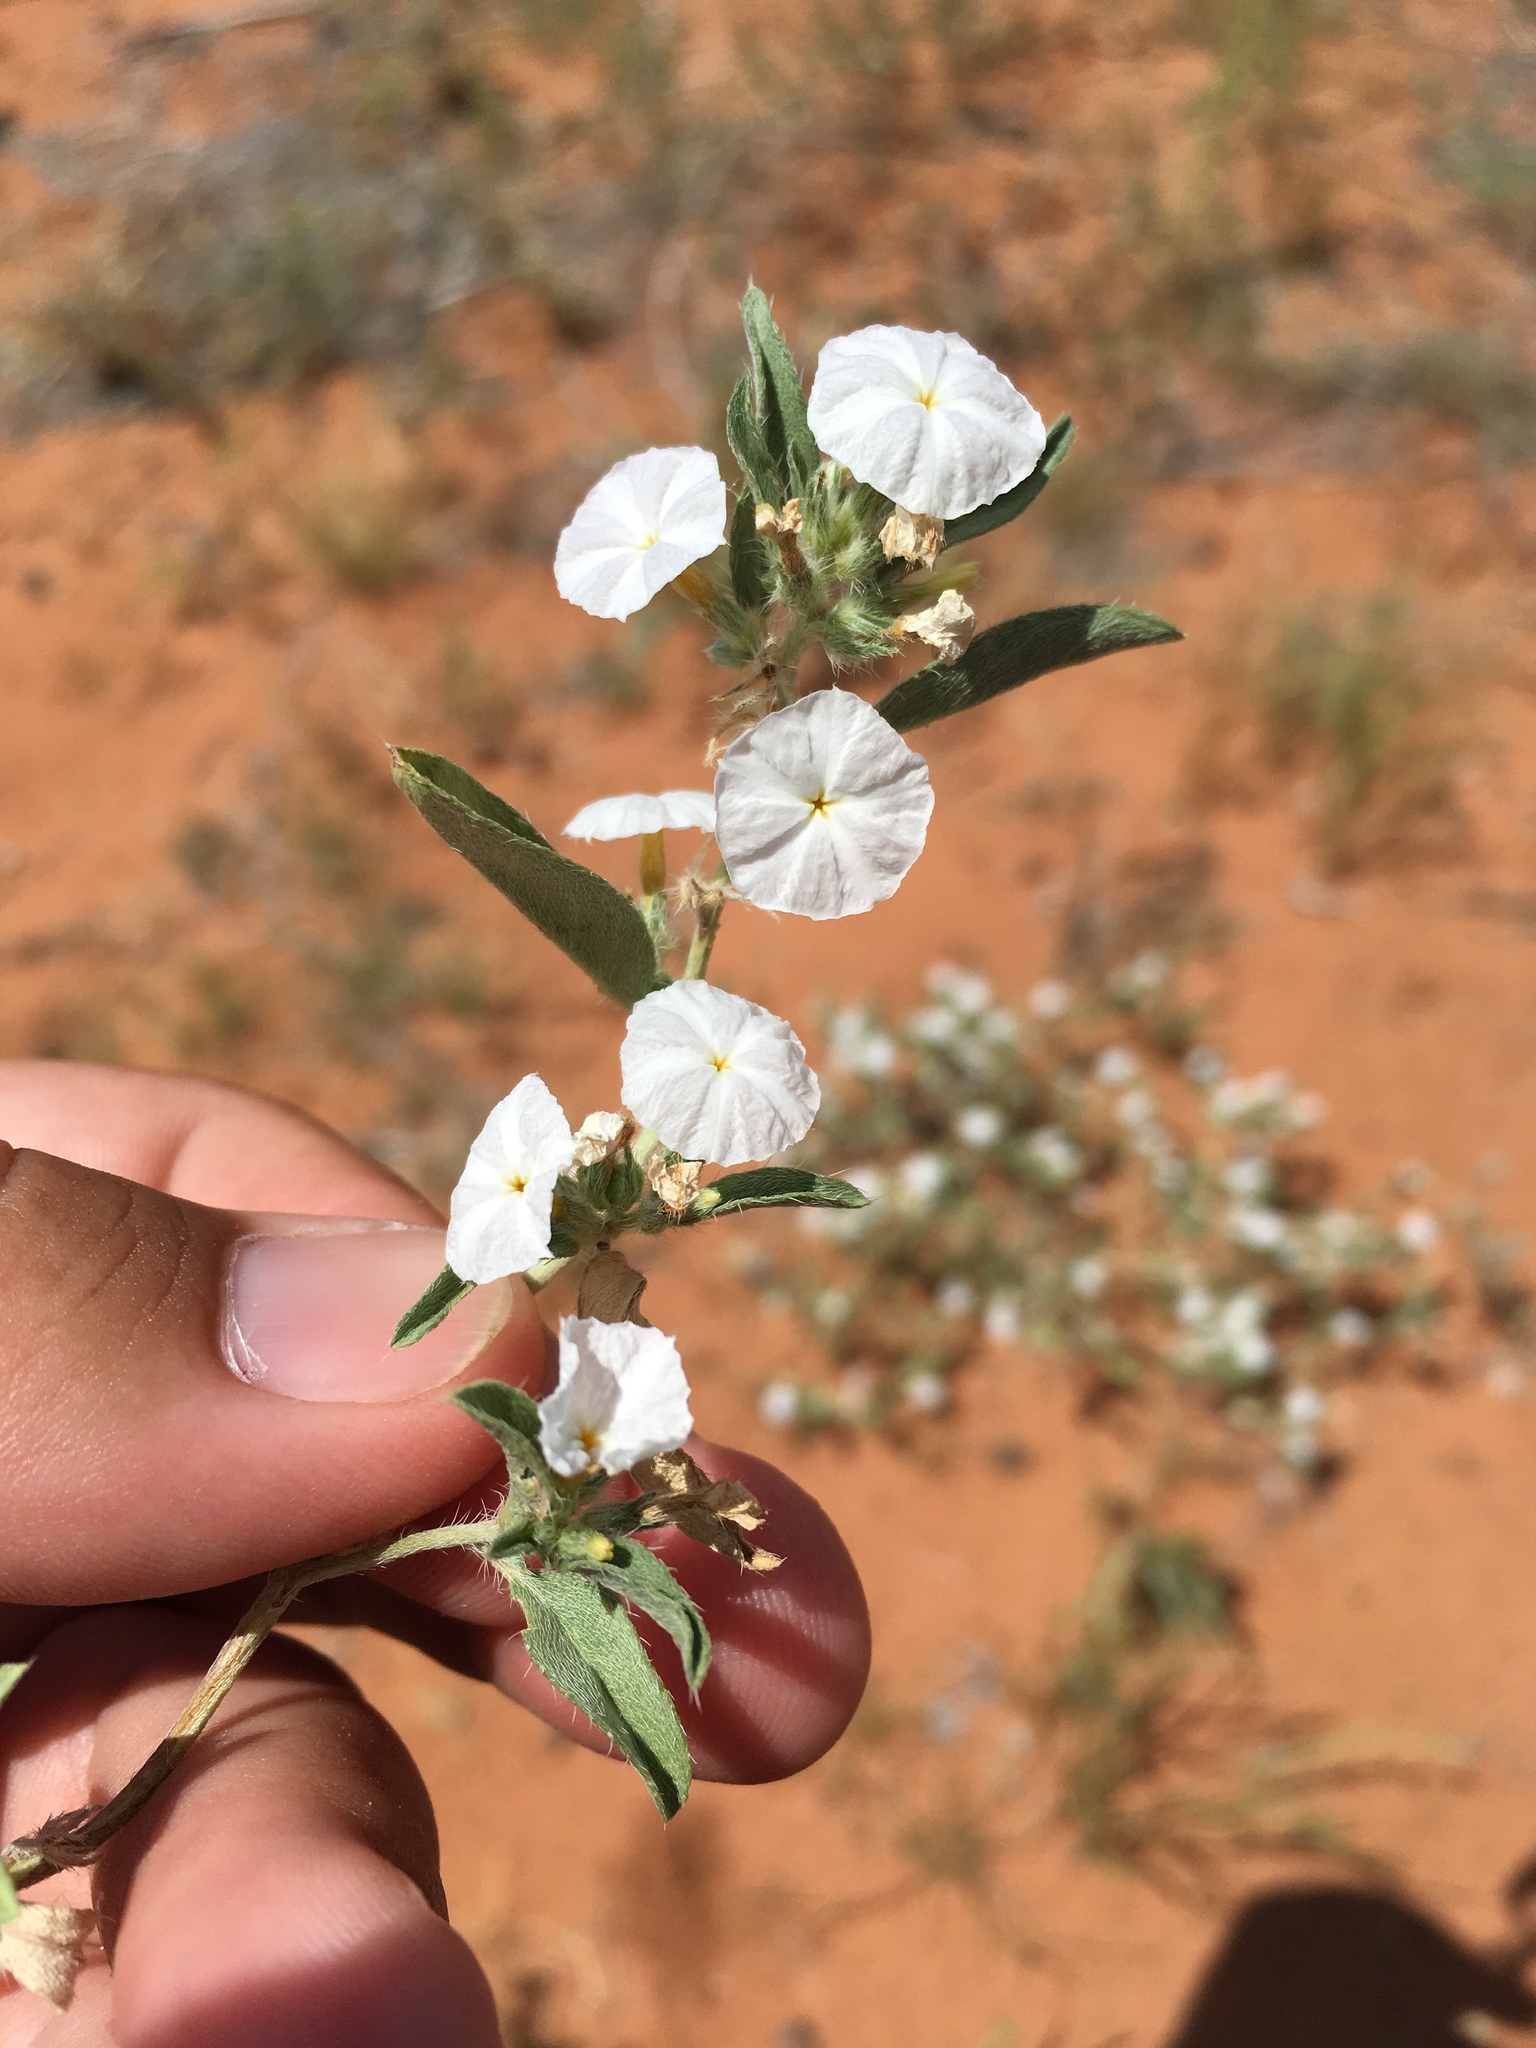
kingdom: Plantae
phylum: Tracheophyta
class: Magnoliopsida
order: Boraginales
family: Heliotropiaceae
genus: Euploca
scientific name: Euploca convolvulacea
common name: Bindweed heliotrope
